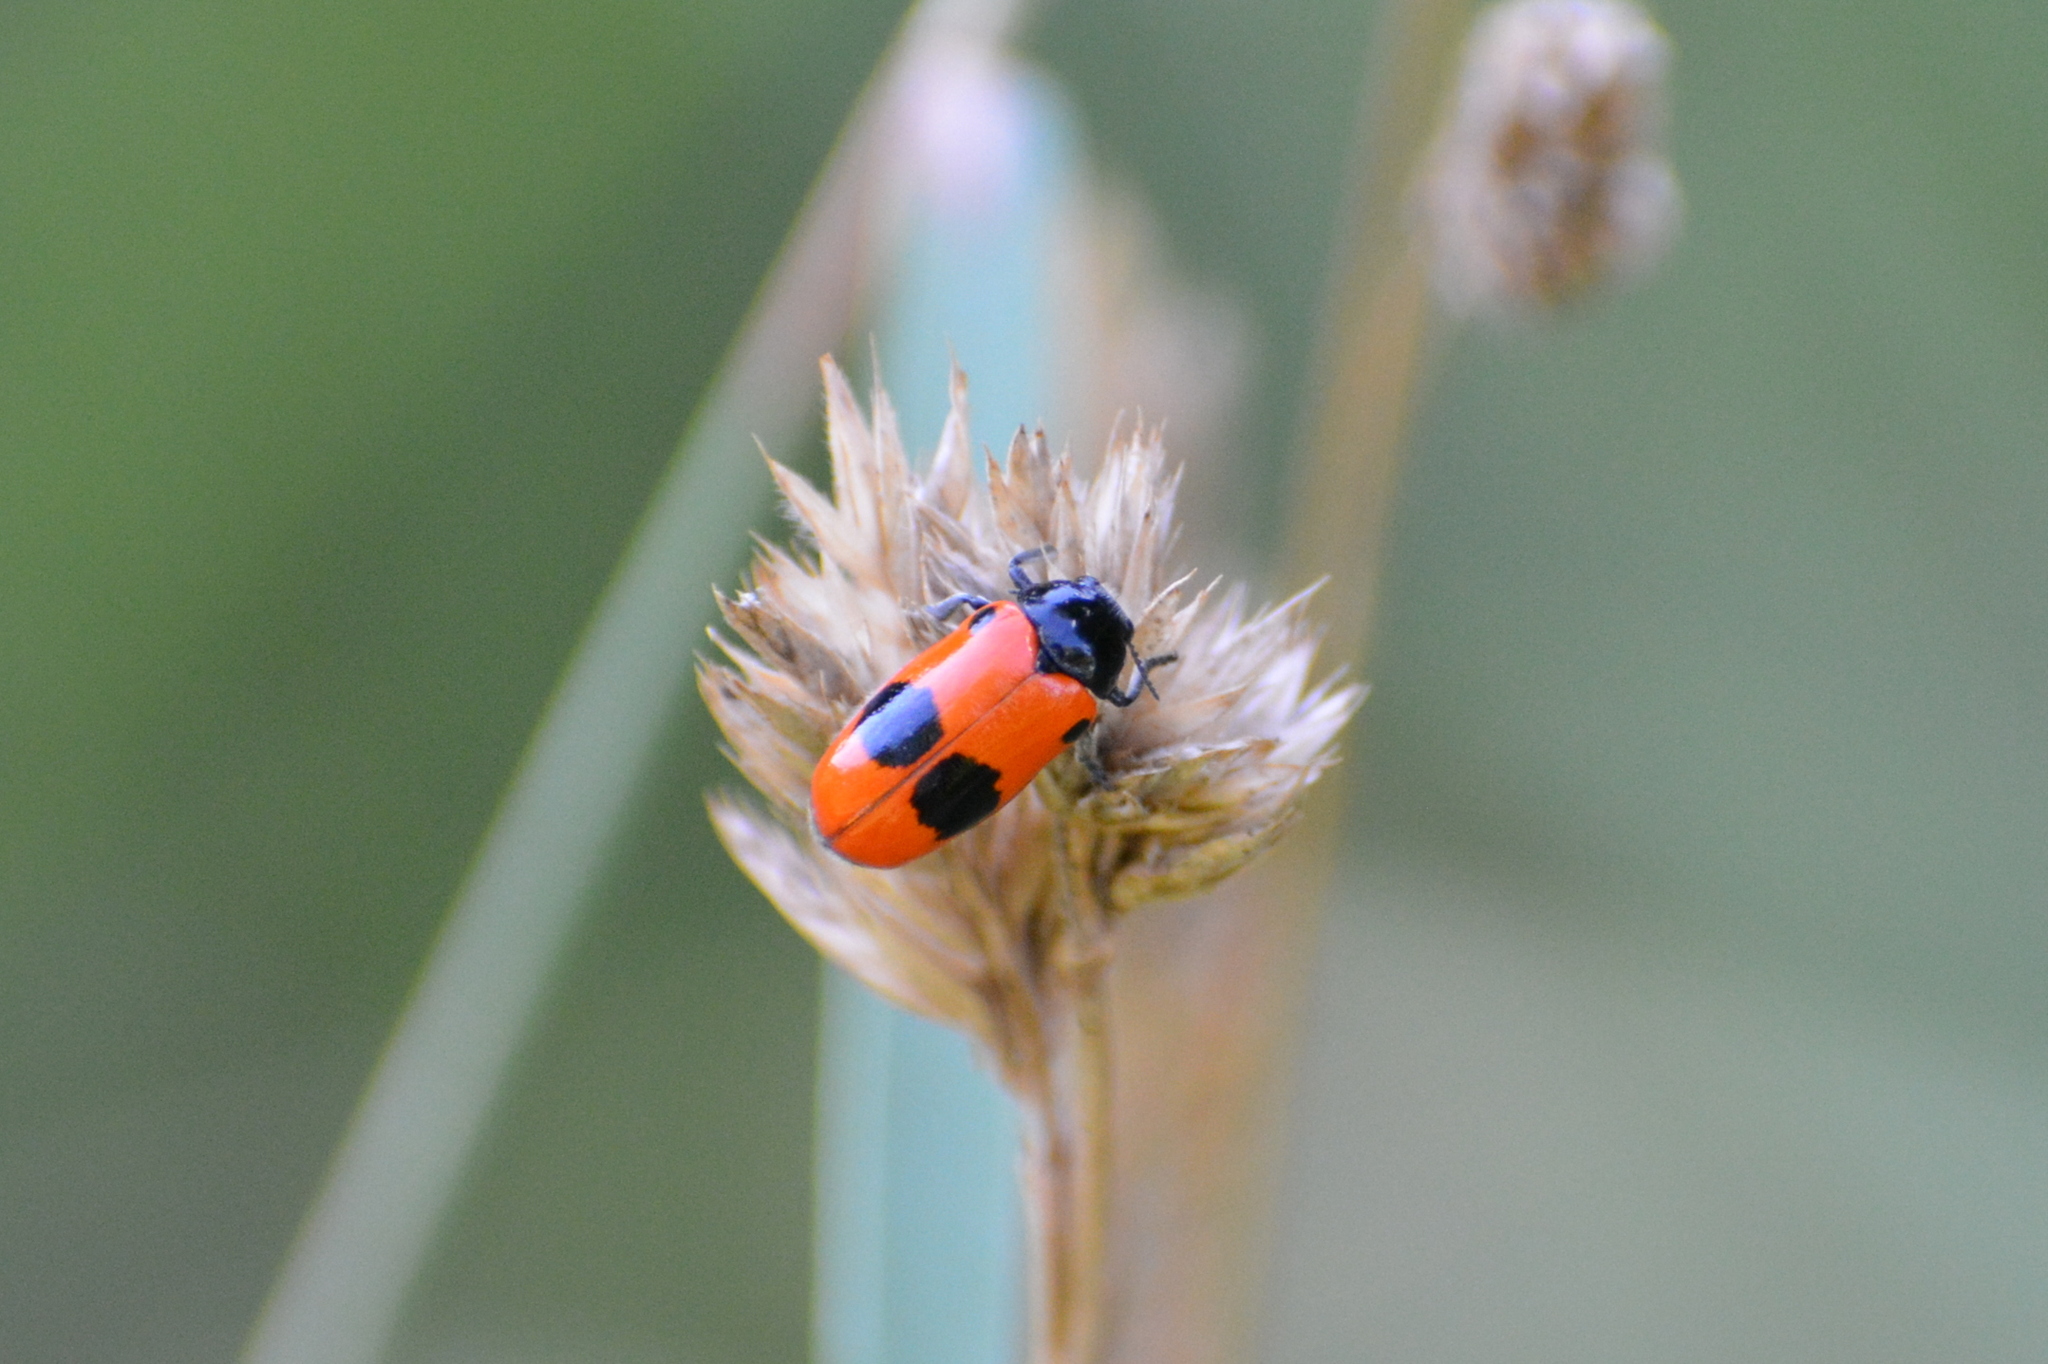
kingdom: Animalia
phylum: Arthropoda
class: Insecta
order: Coleoptera
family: Chrysomelidae
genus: Clytra
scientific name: Clytra laeviuscula
